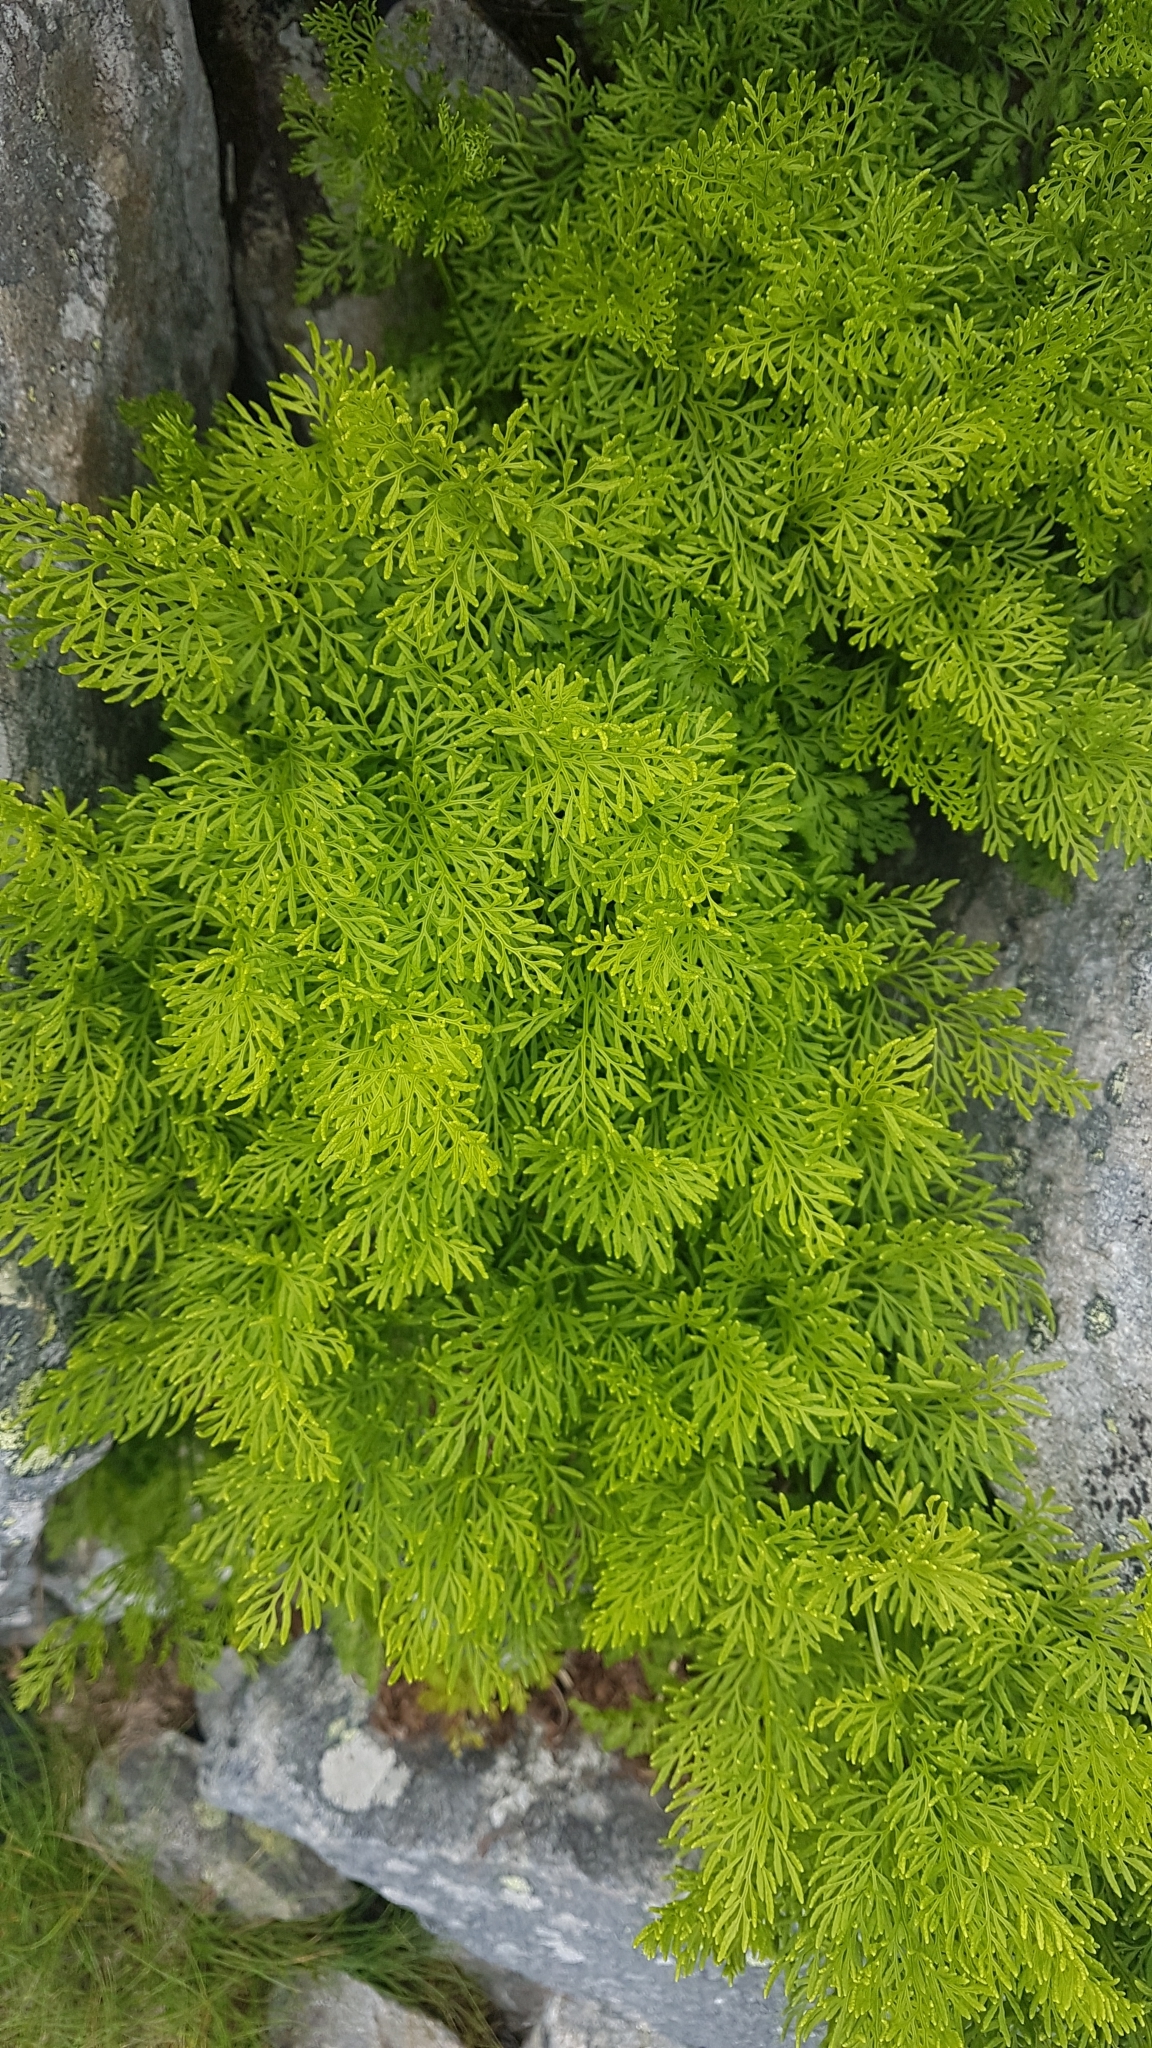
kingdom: Plantae
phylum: Tracheophyta
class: Polypodiopsida
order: Polypodiales
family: Pteridaceae
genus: Cryptogramma
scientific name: Cryptogramma crispa
